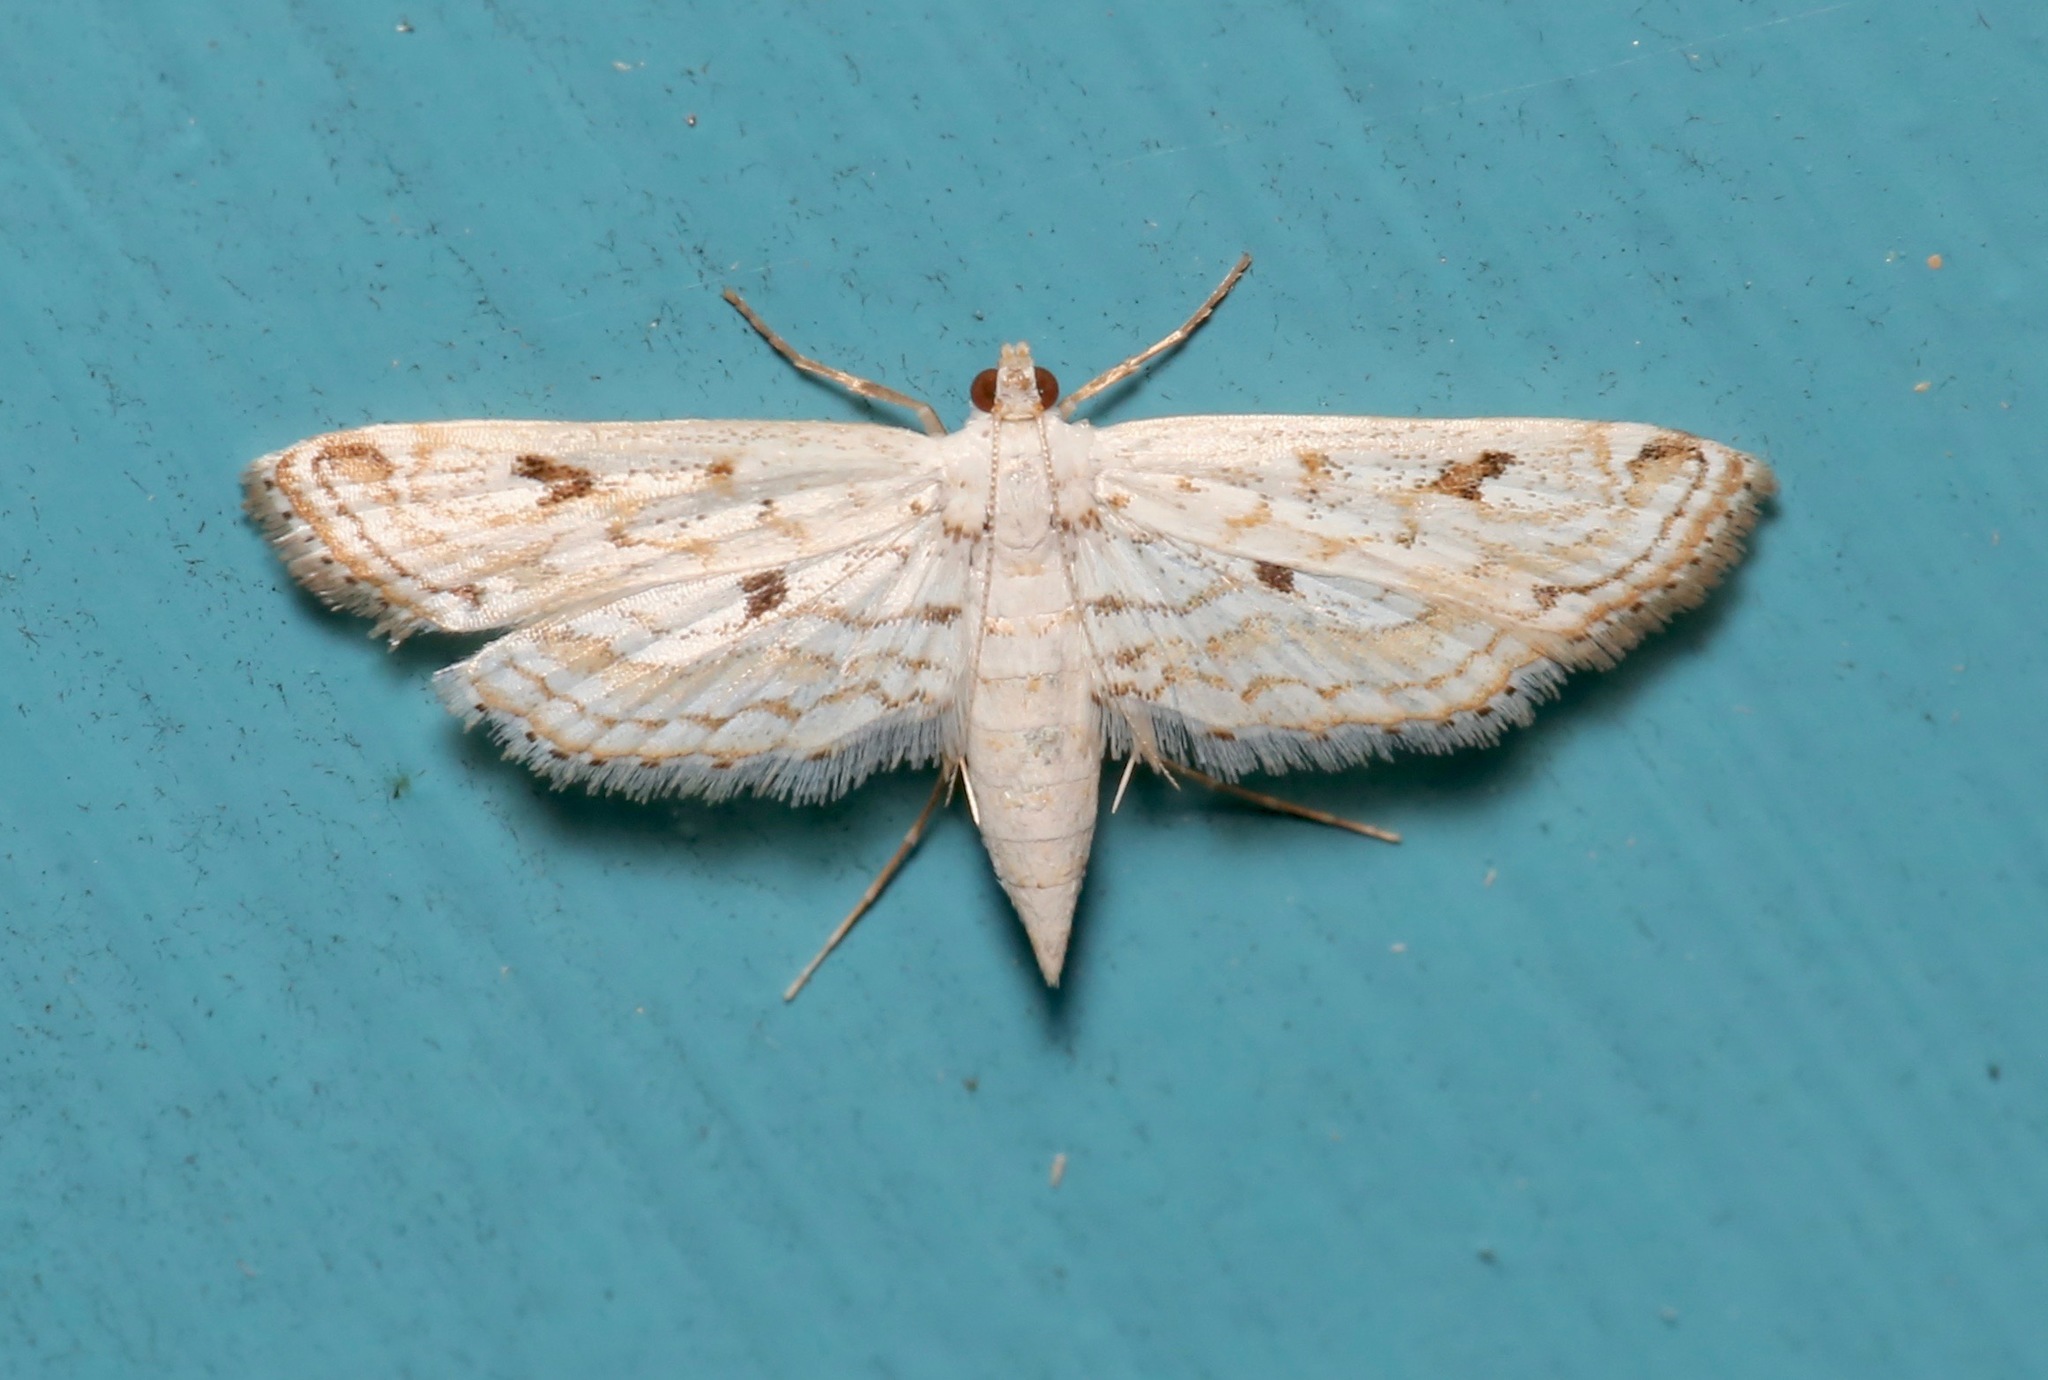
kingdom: Animalia
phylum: Arthropoda
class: Insecta
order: Lepidoptera
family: Crambidae
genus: Parapoynx
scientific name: Parapoynx allionealis
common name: Bladderwort casemaker
